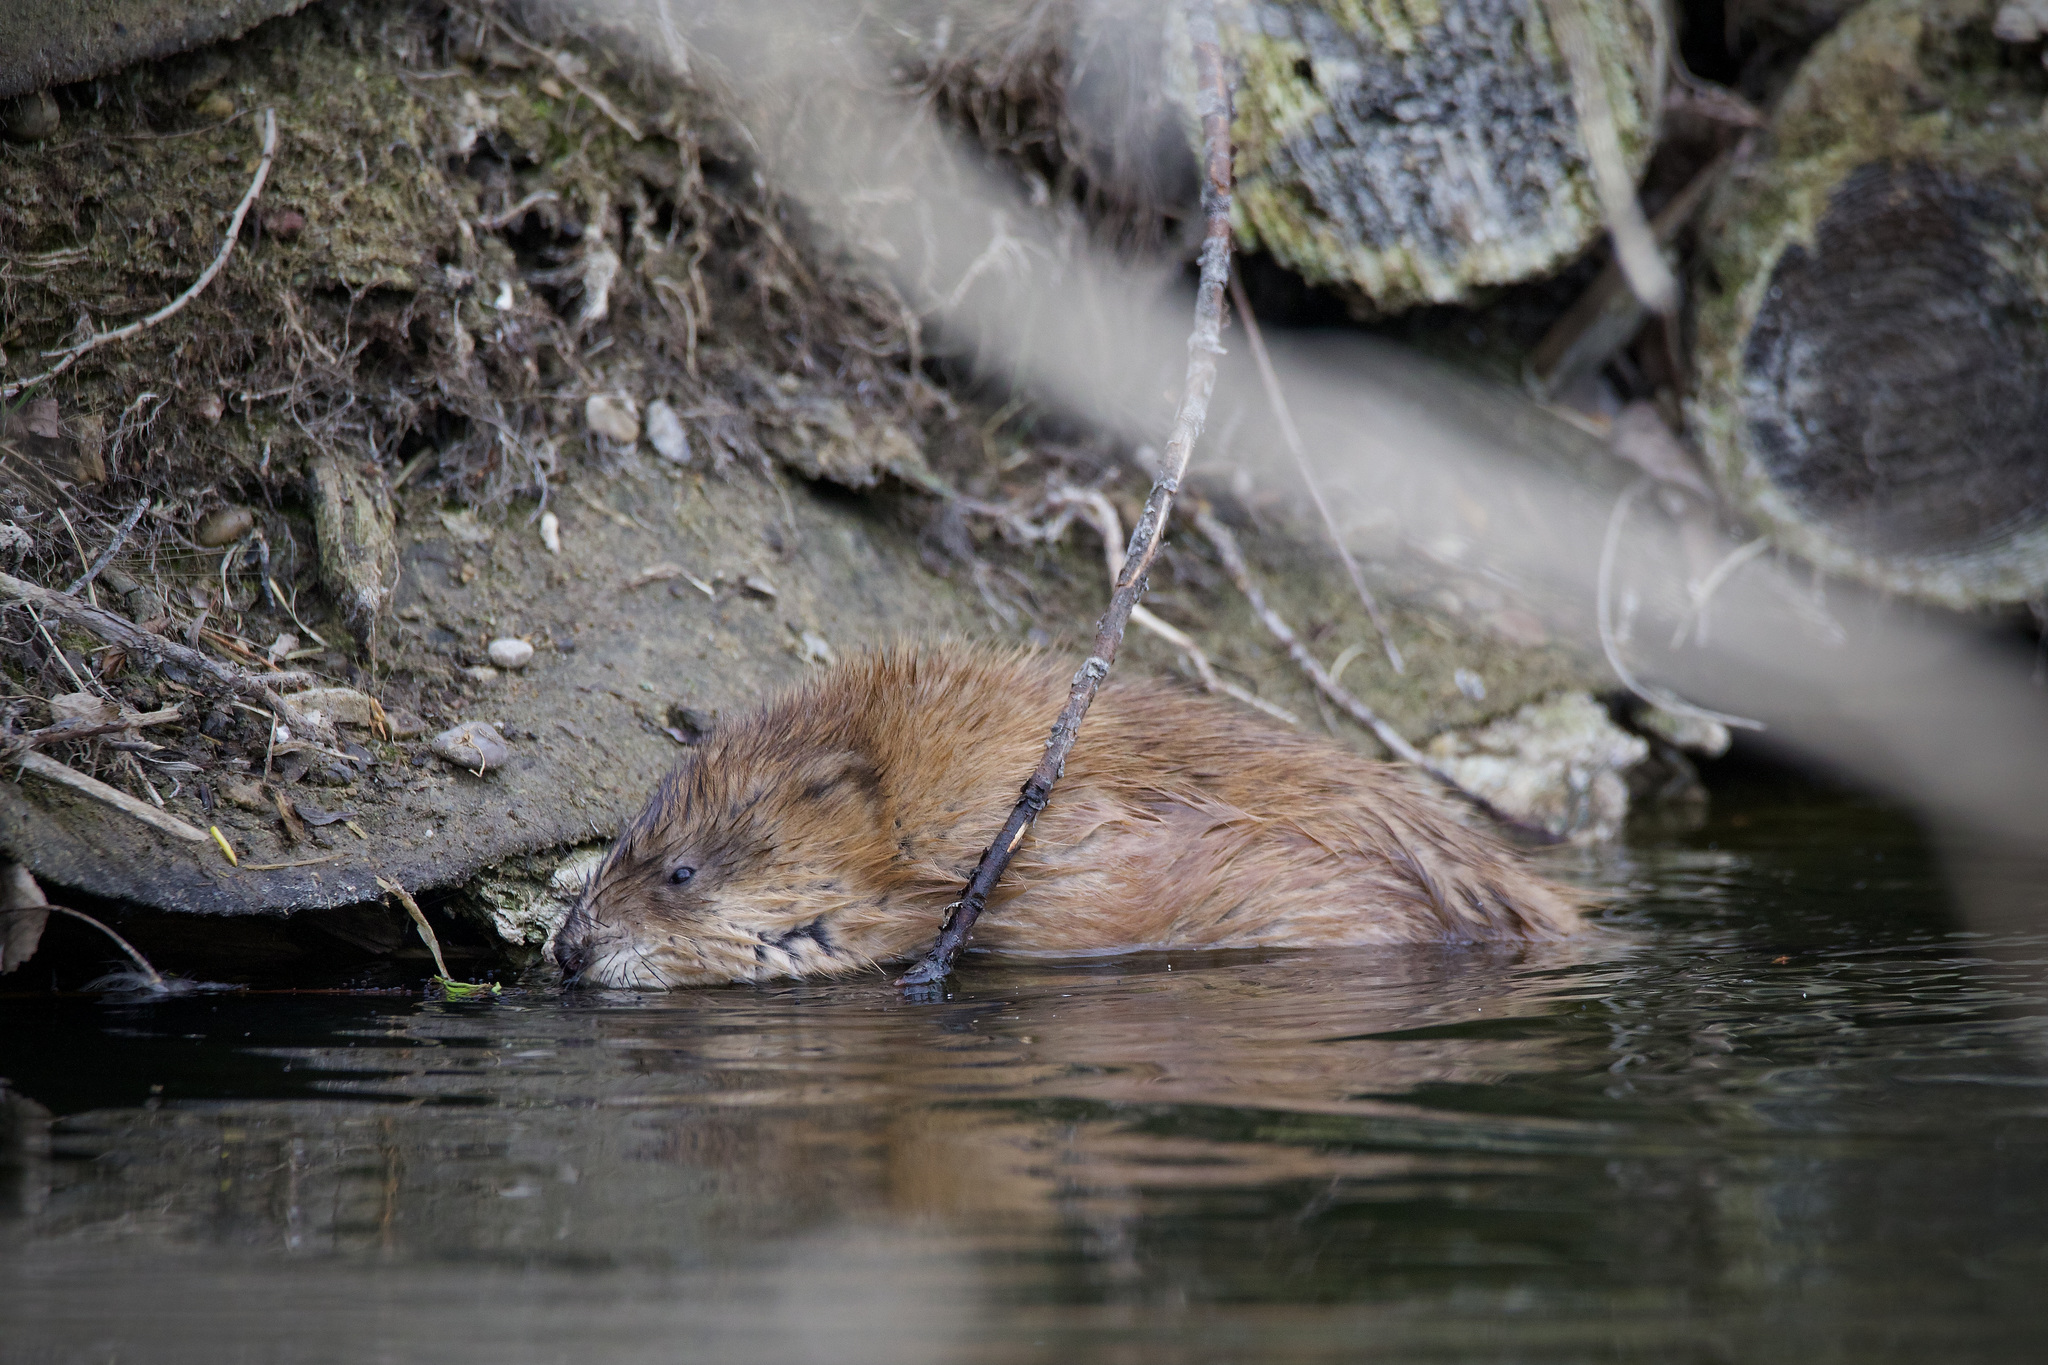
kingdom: Animalia
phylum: Chordata
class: Mammalia
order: Rodentia
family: Cricetidae
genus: Ondatra
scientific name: Ondatra zibethicus
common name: Muskrat
